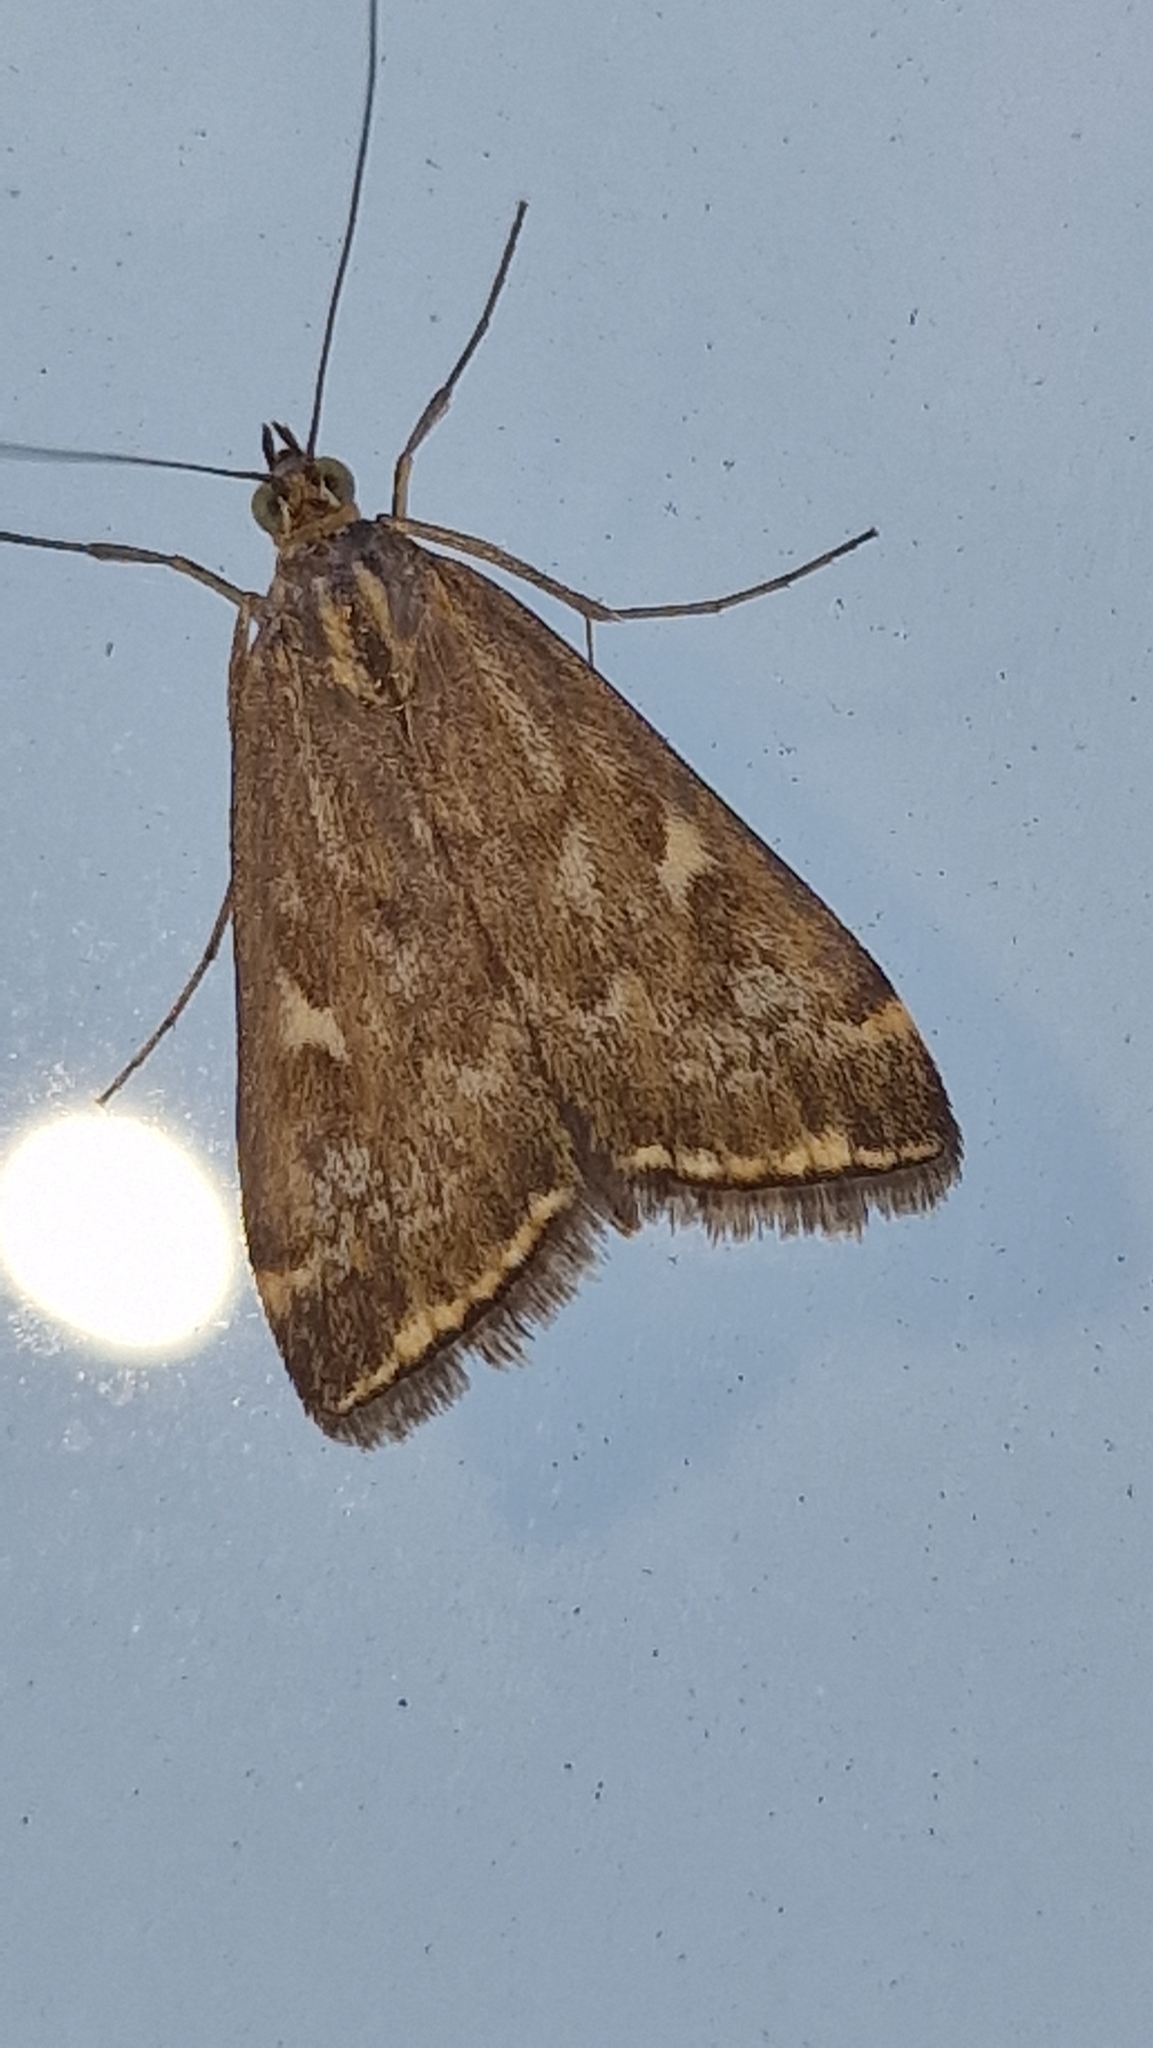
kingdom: Animalia
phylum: Arthropoda
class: Insecta
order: Lepidoptera
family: Crambidae
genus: Loxostege
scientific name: Loxostege sticticalis
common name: Crambid moth
